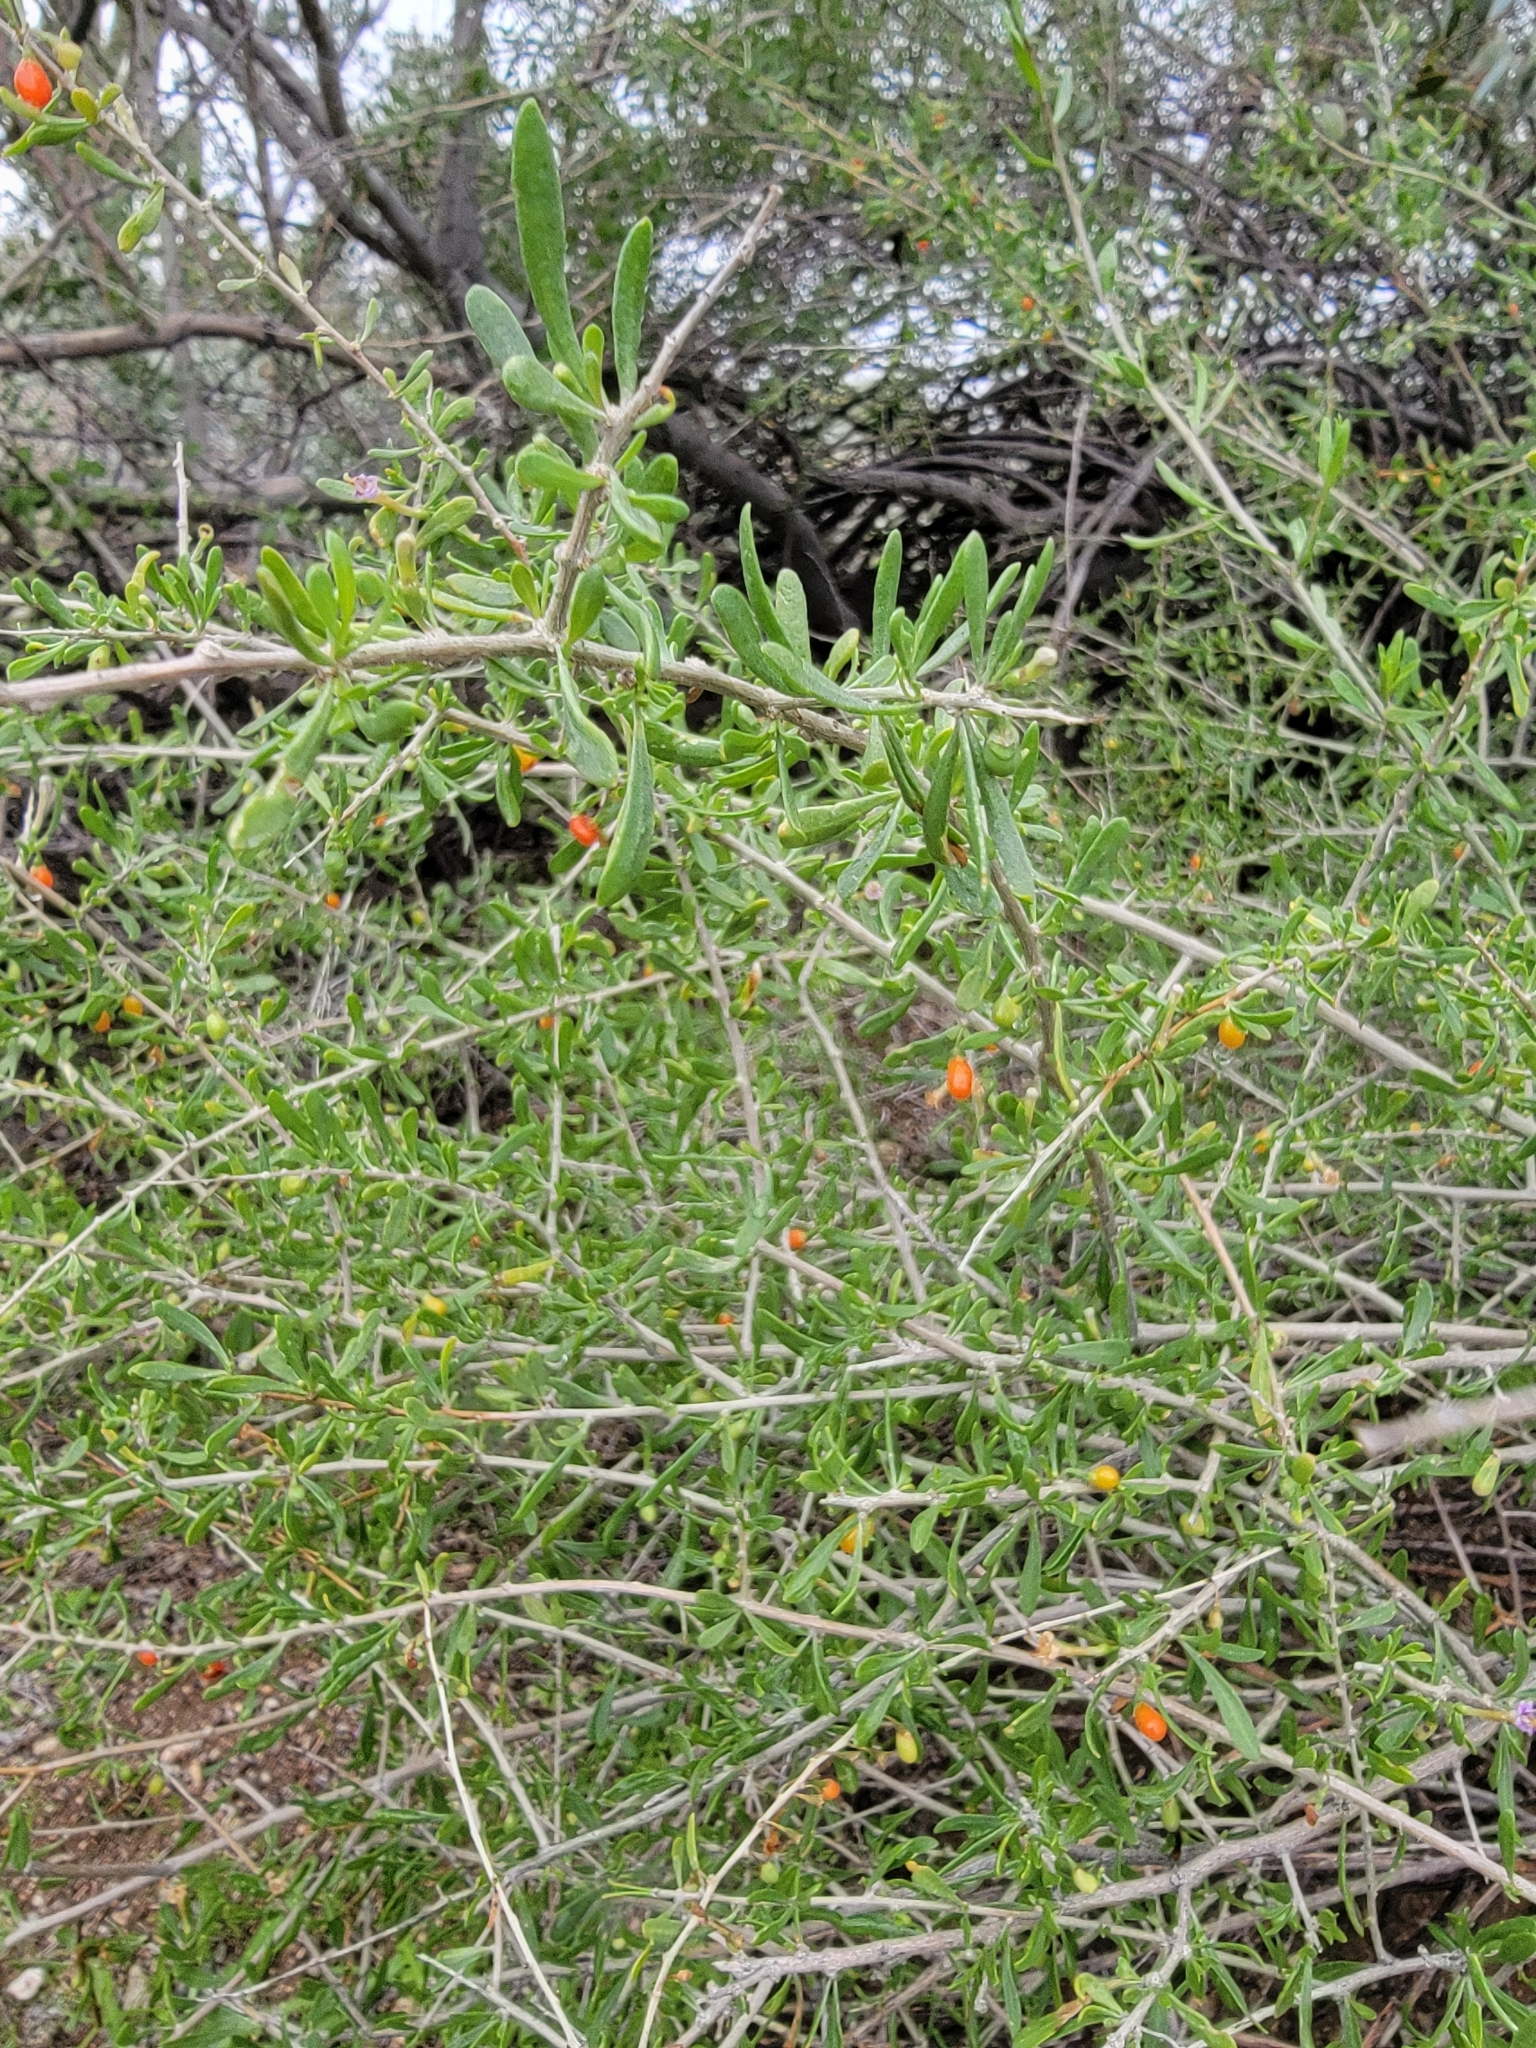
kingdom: Plantae
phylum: Tracheophyta
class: Magnoliopsida
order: Solanales
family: Solanaceae
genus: Lycium
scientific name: Lycium andersonii
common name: Water-jacket
